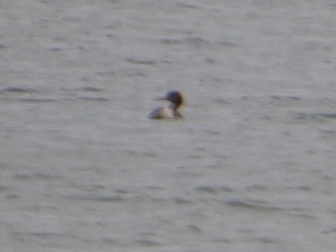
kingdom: Animalia
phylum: Chordata
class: Aves
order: Anseriformes
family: Anatidae
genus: Mergus
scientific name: Mergus serrator
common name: Red-breasted merganser
